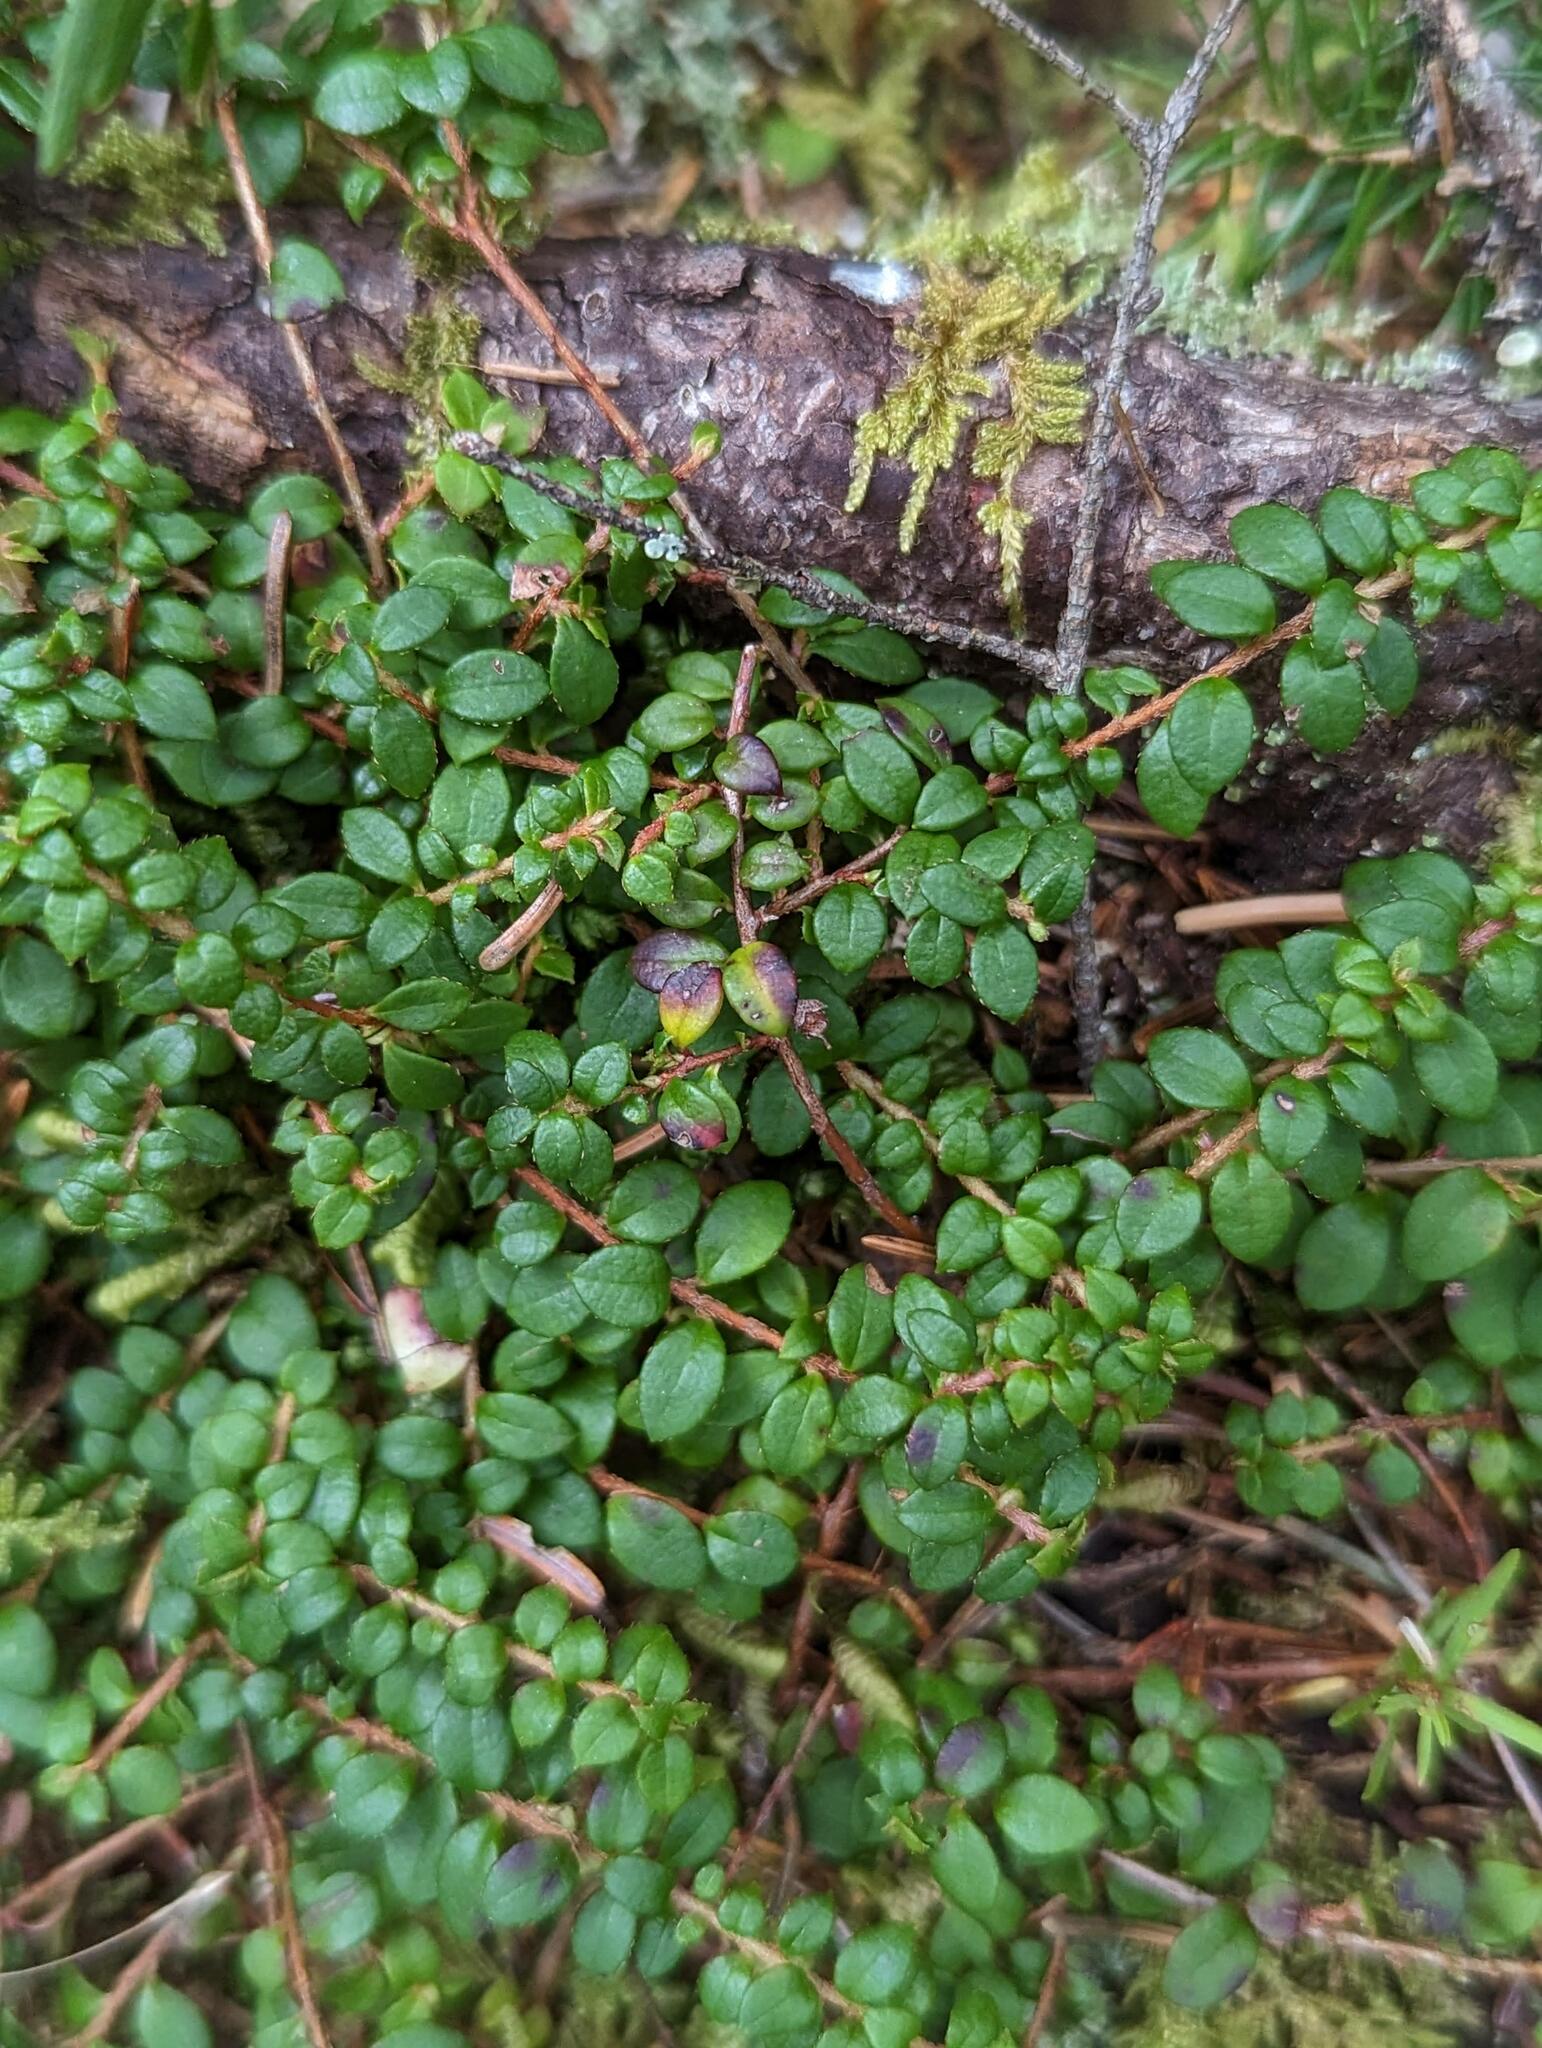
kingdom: Plantae
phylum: Tracheophyta
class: Magnoliopsida
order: Ericales
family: Ericaceae
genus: Gaultheria
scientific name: Gaultheria hispidula
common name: Cancer wintergreen
